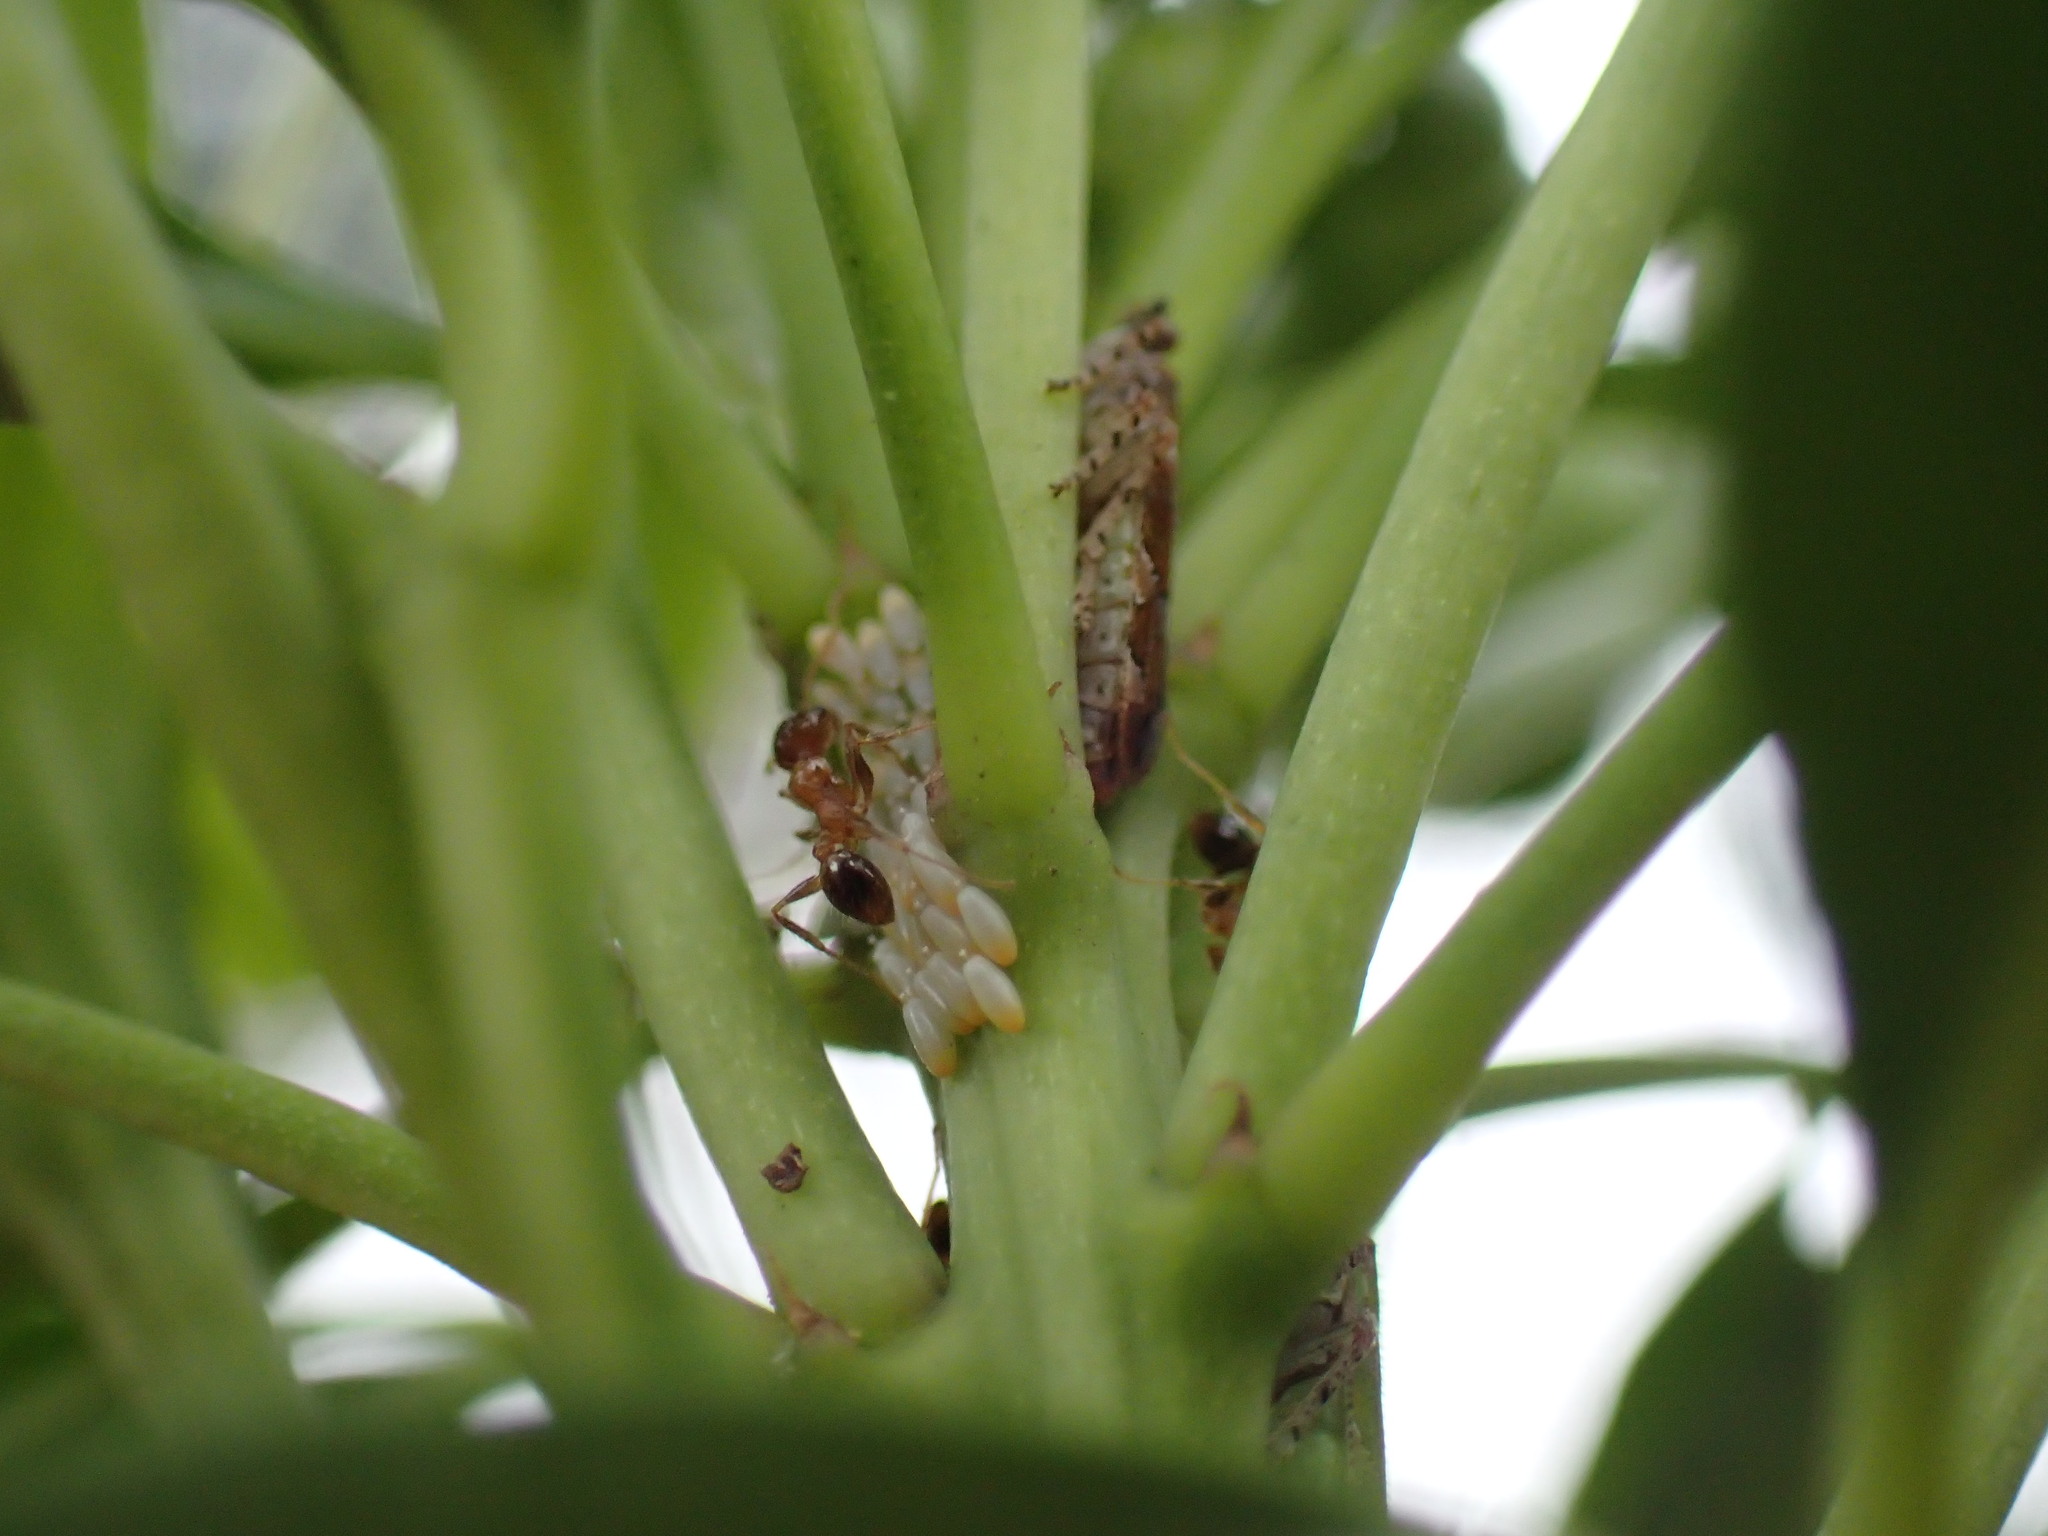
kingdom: Animalia
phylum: Arthropoda
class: Insecta
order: Hymenoptera
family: Formicidae
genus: Pheidole
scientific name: Pheidole megacephala
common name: Bigheaded ant
